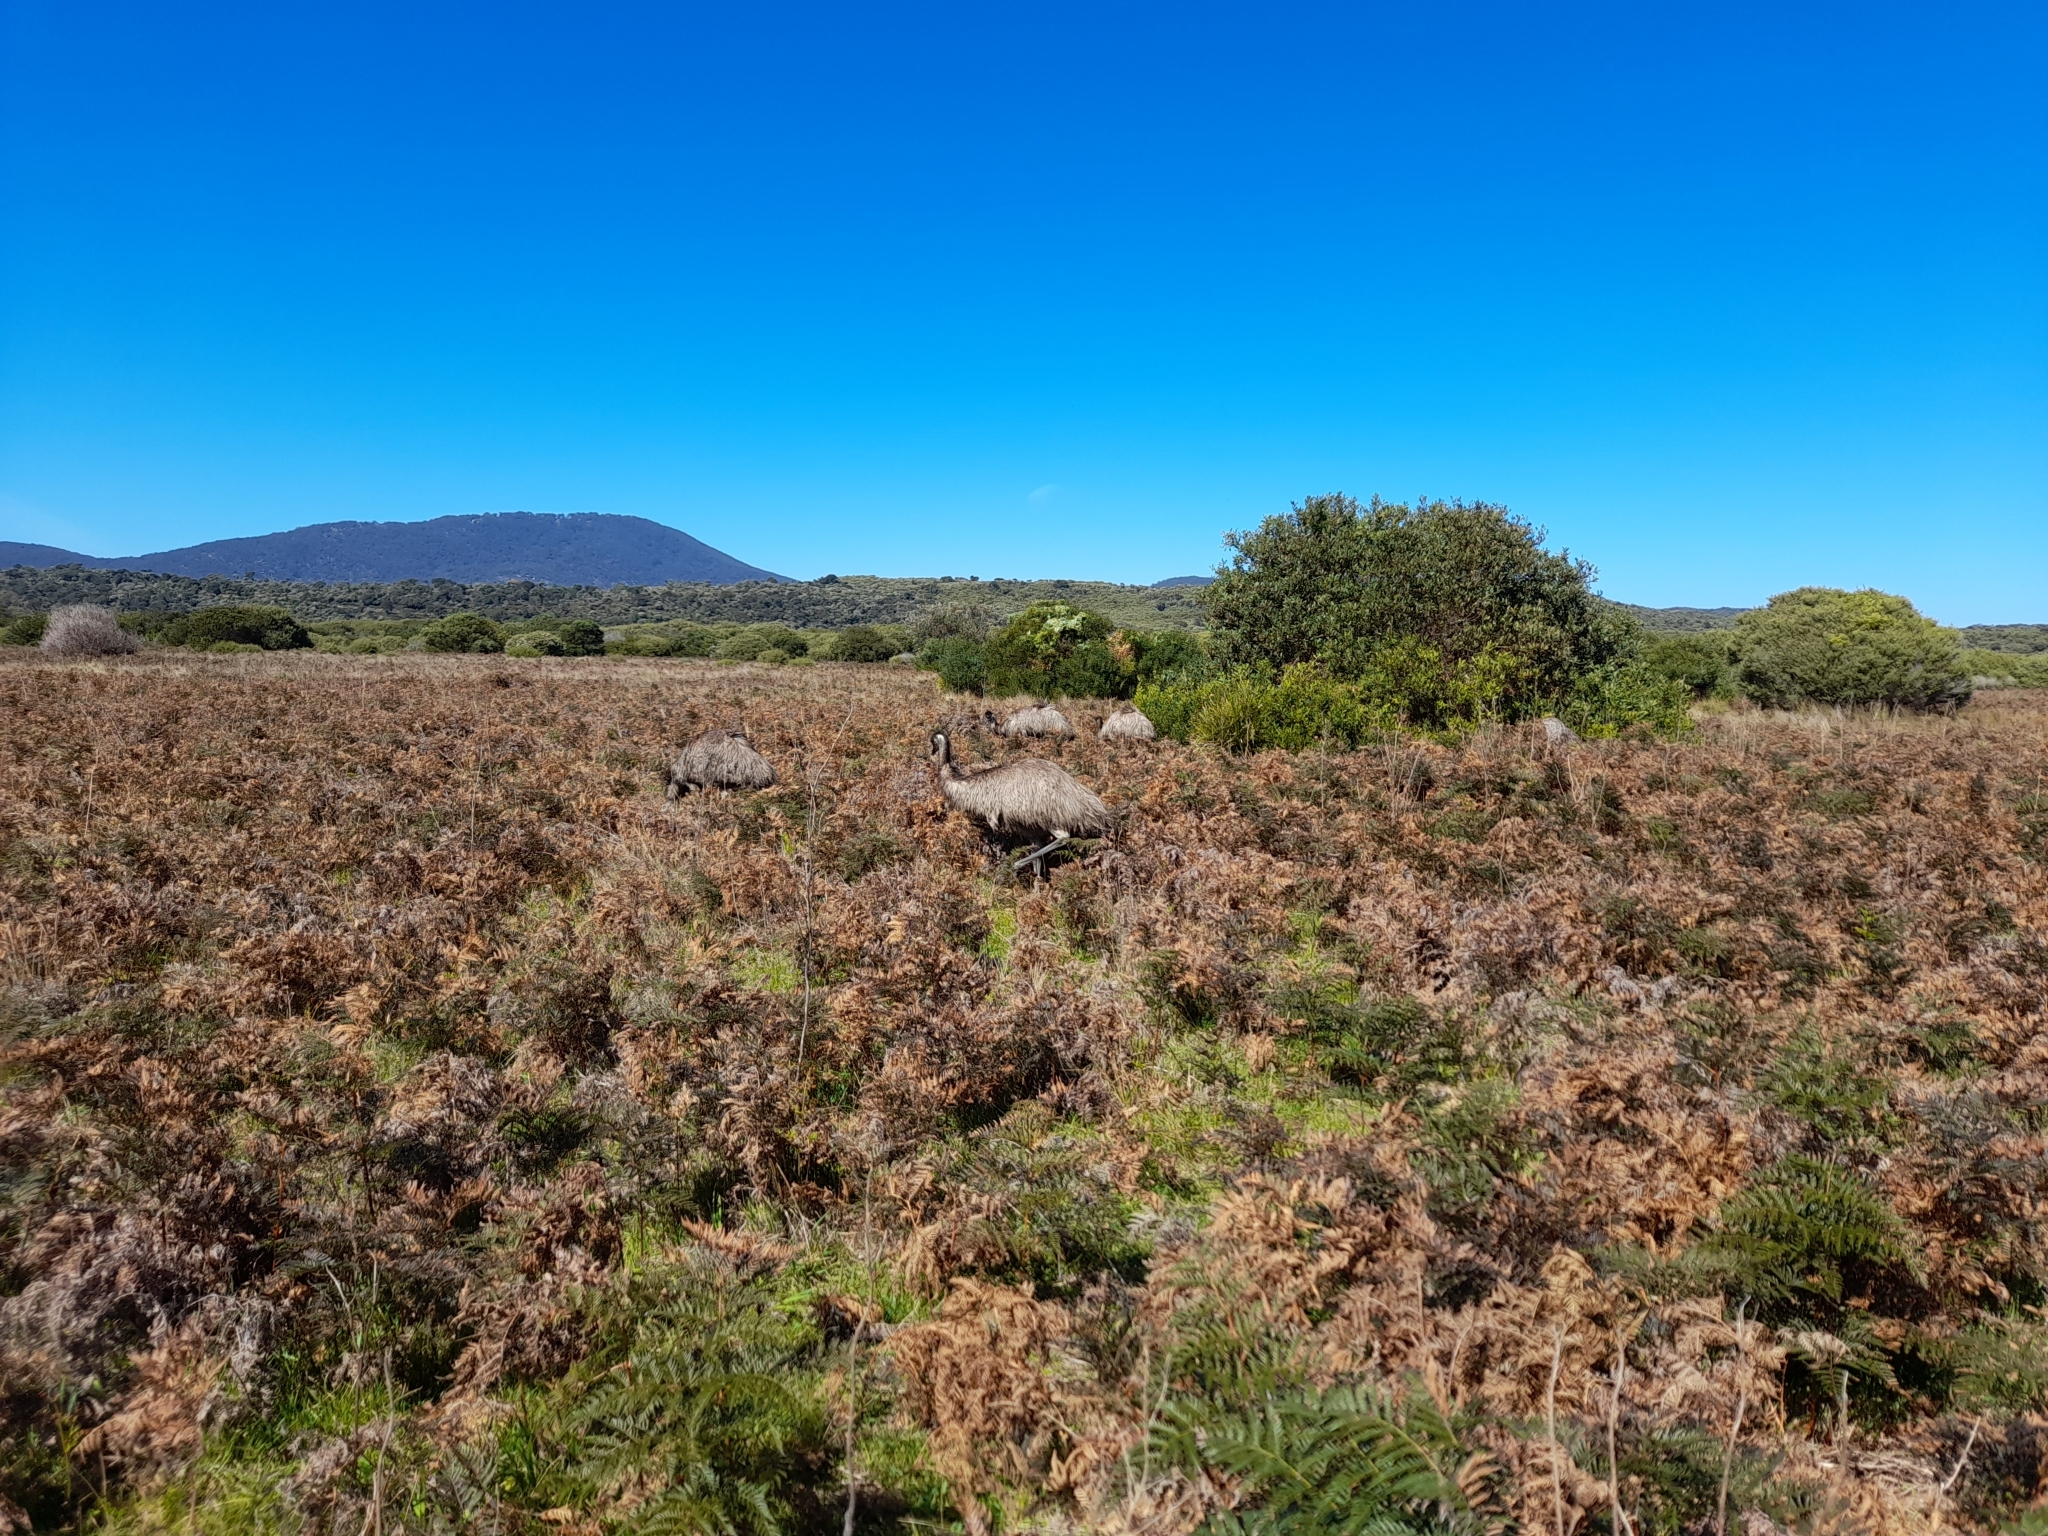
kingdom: Animalia
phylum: Chordata
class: Aves
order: Casuariiformes
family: Dromaiidae
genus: Dromaius
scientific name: Dromaius novaehollandiae
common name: Emu
